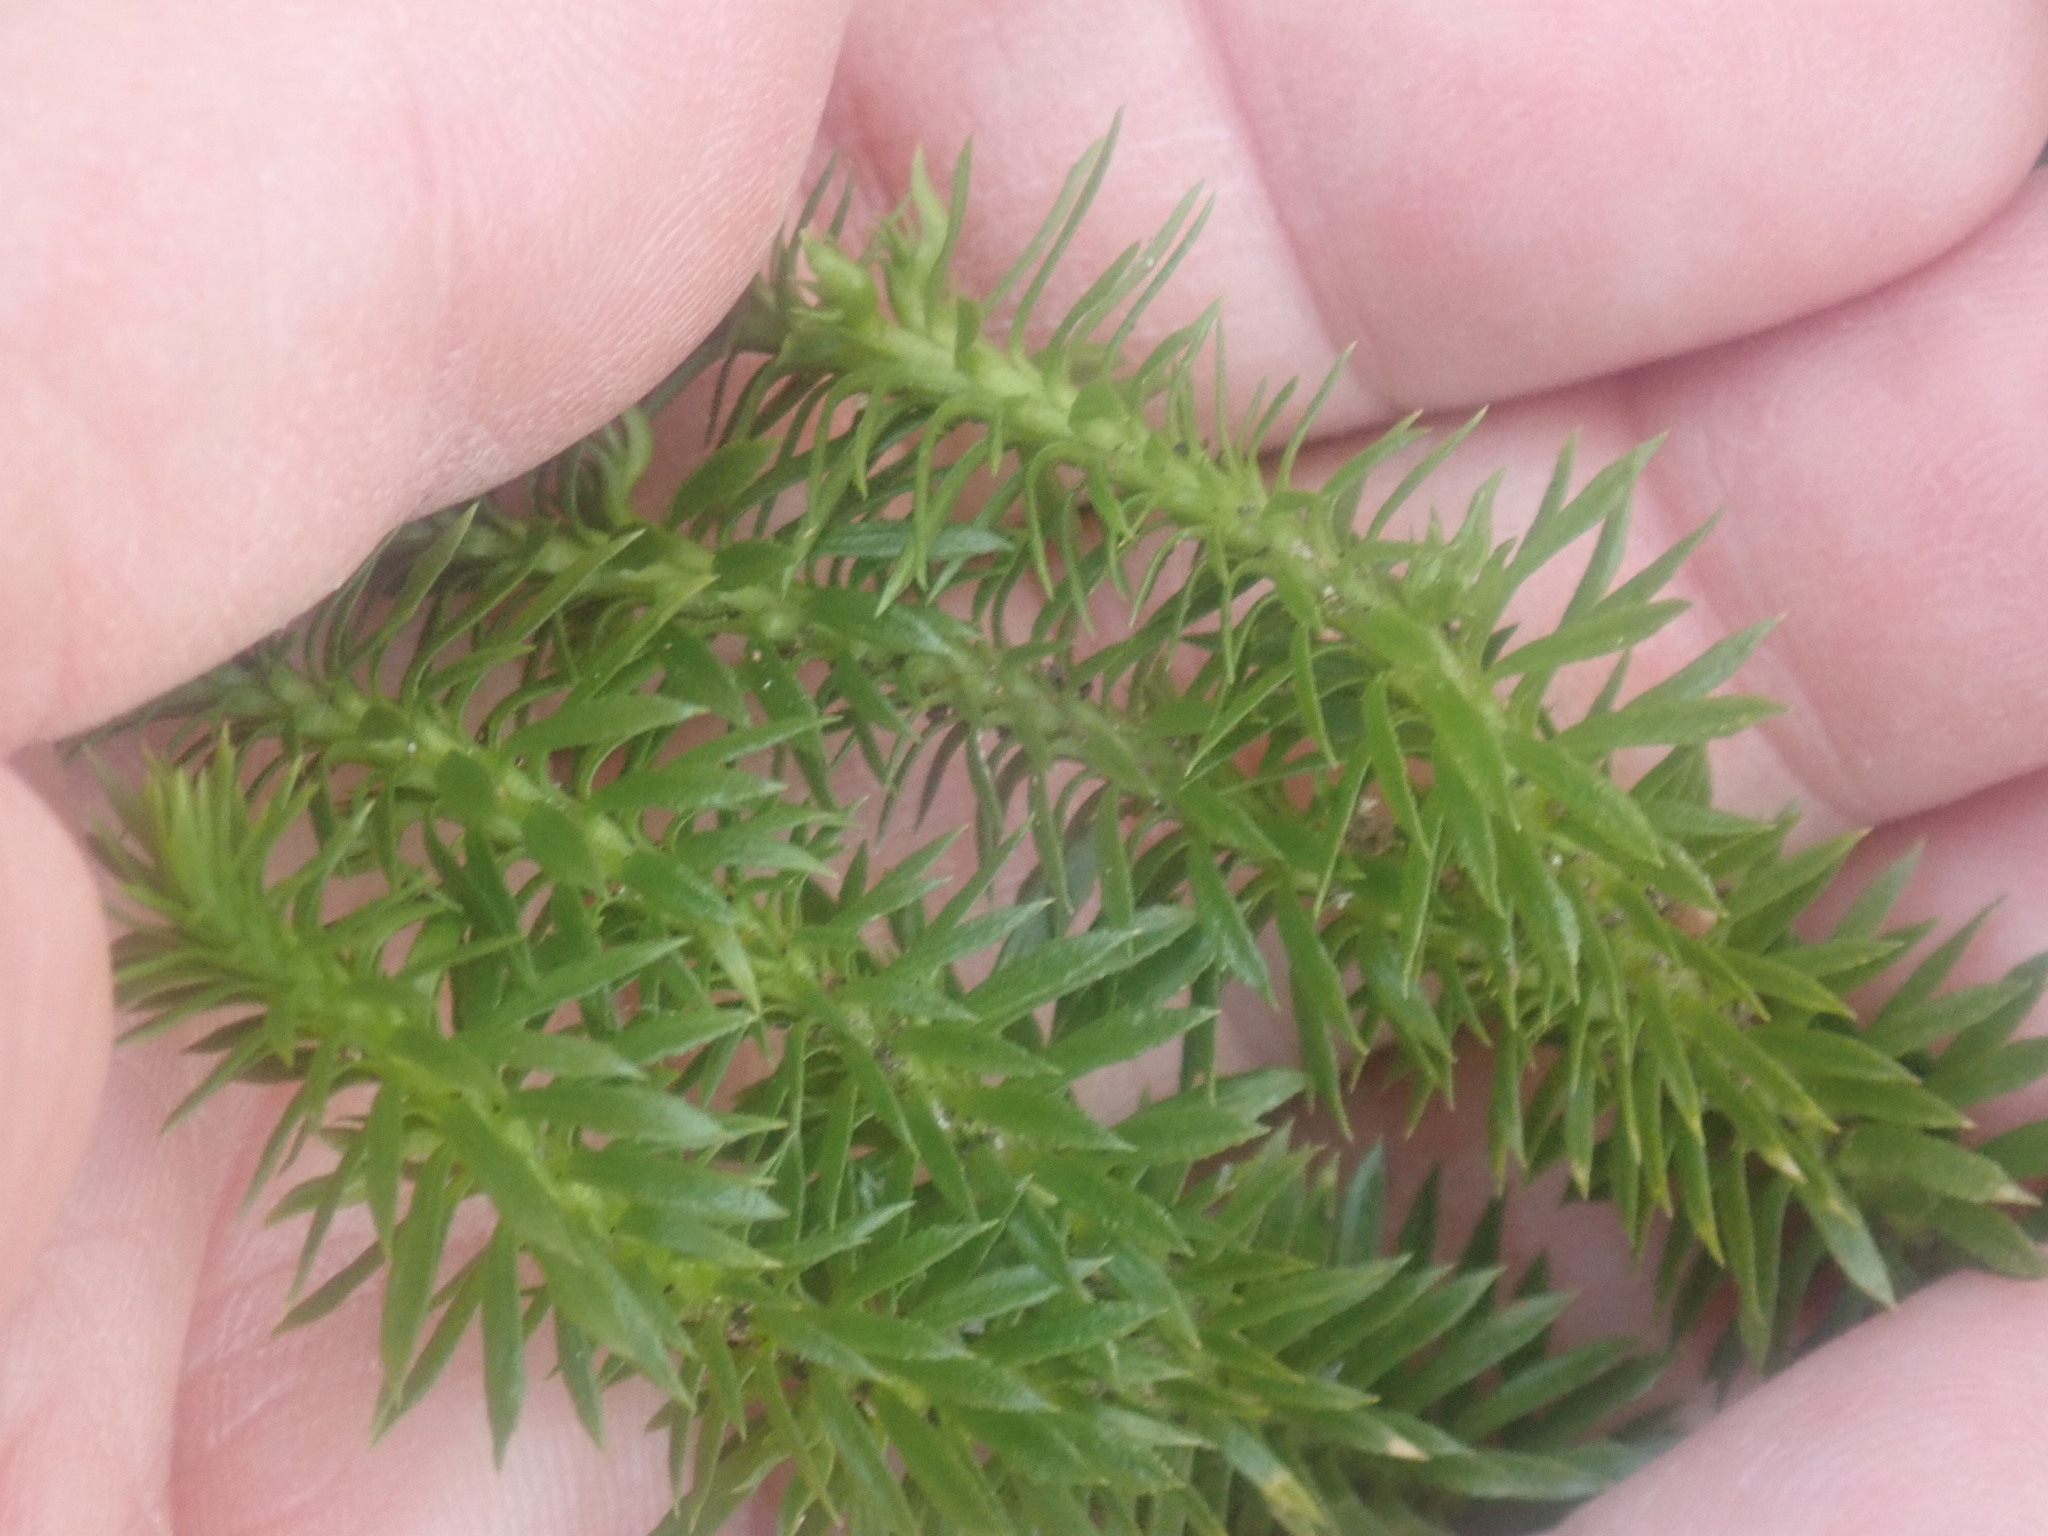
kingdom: Plantae
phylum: Tracheophyta
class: Lycopodiopsida
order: Lycopodiales
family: Lycopodiaceae
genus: Huperzia
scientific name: Huperzia lucidula
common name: Shining clubmoss
